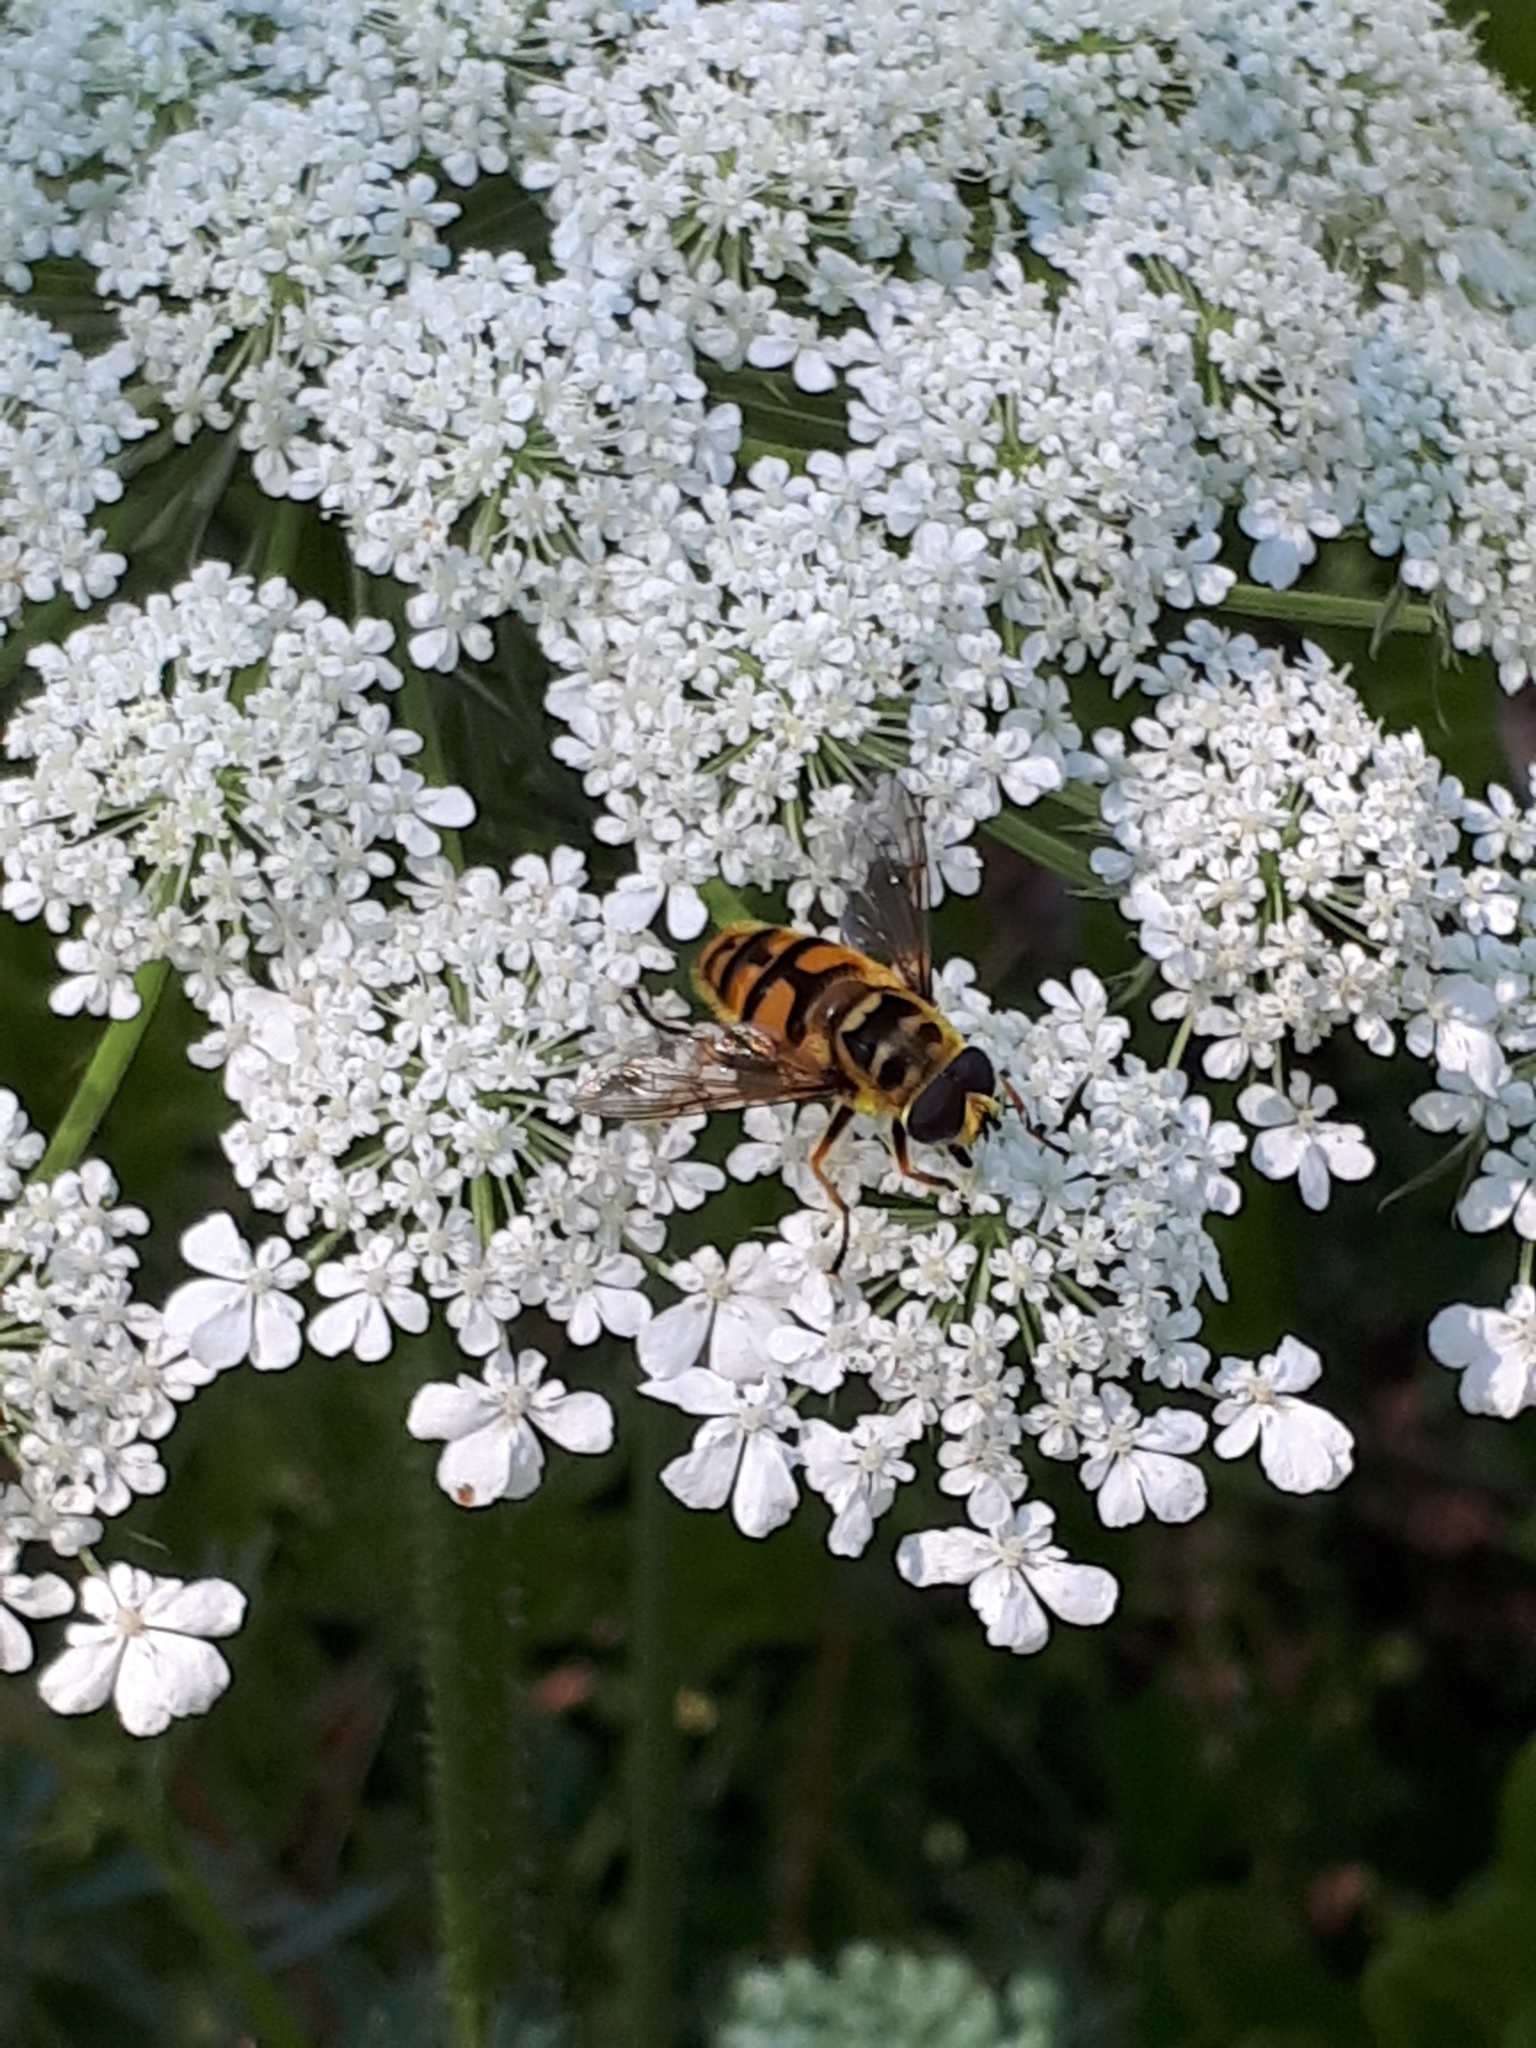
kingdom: Animalia
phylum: Arthropoda
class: Insecta
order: Diptera
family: Syrphidae
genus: Myathropa
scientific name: Myathropa florea
